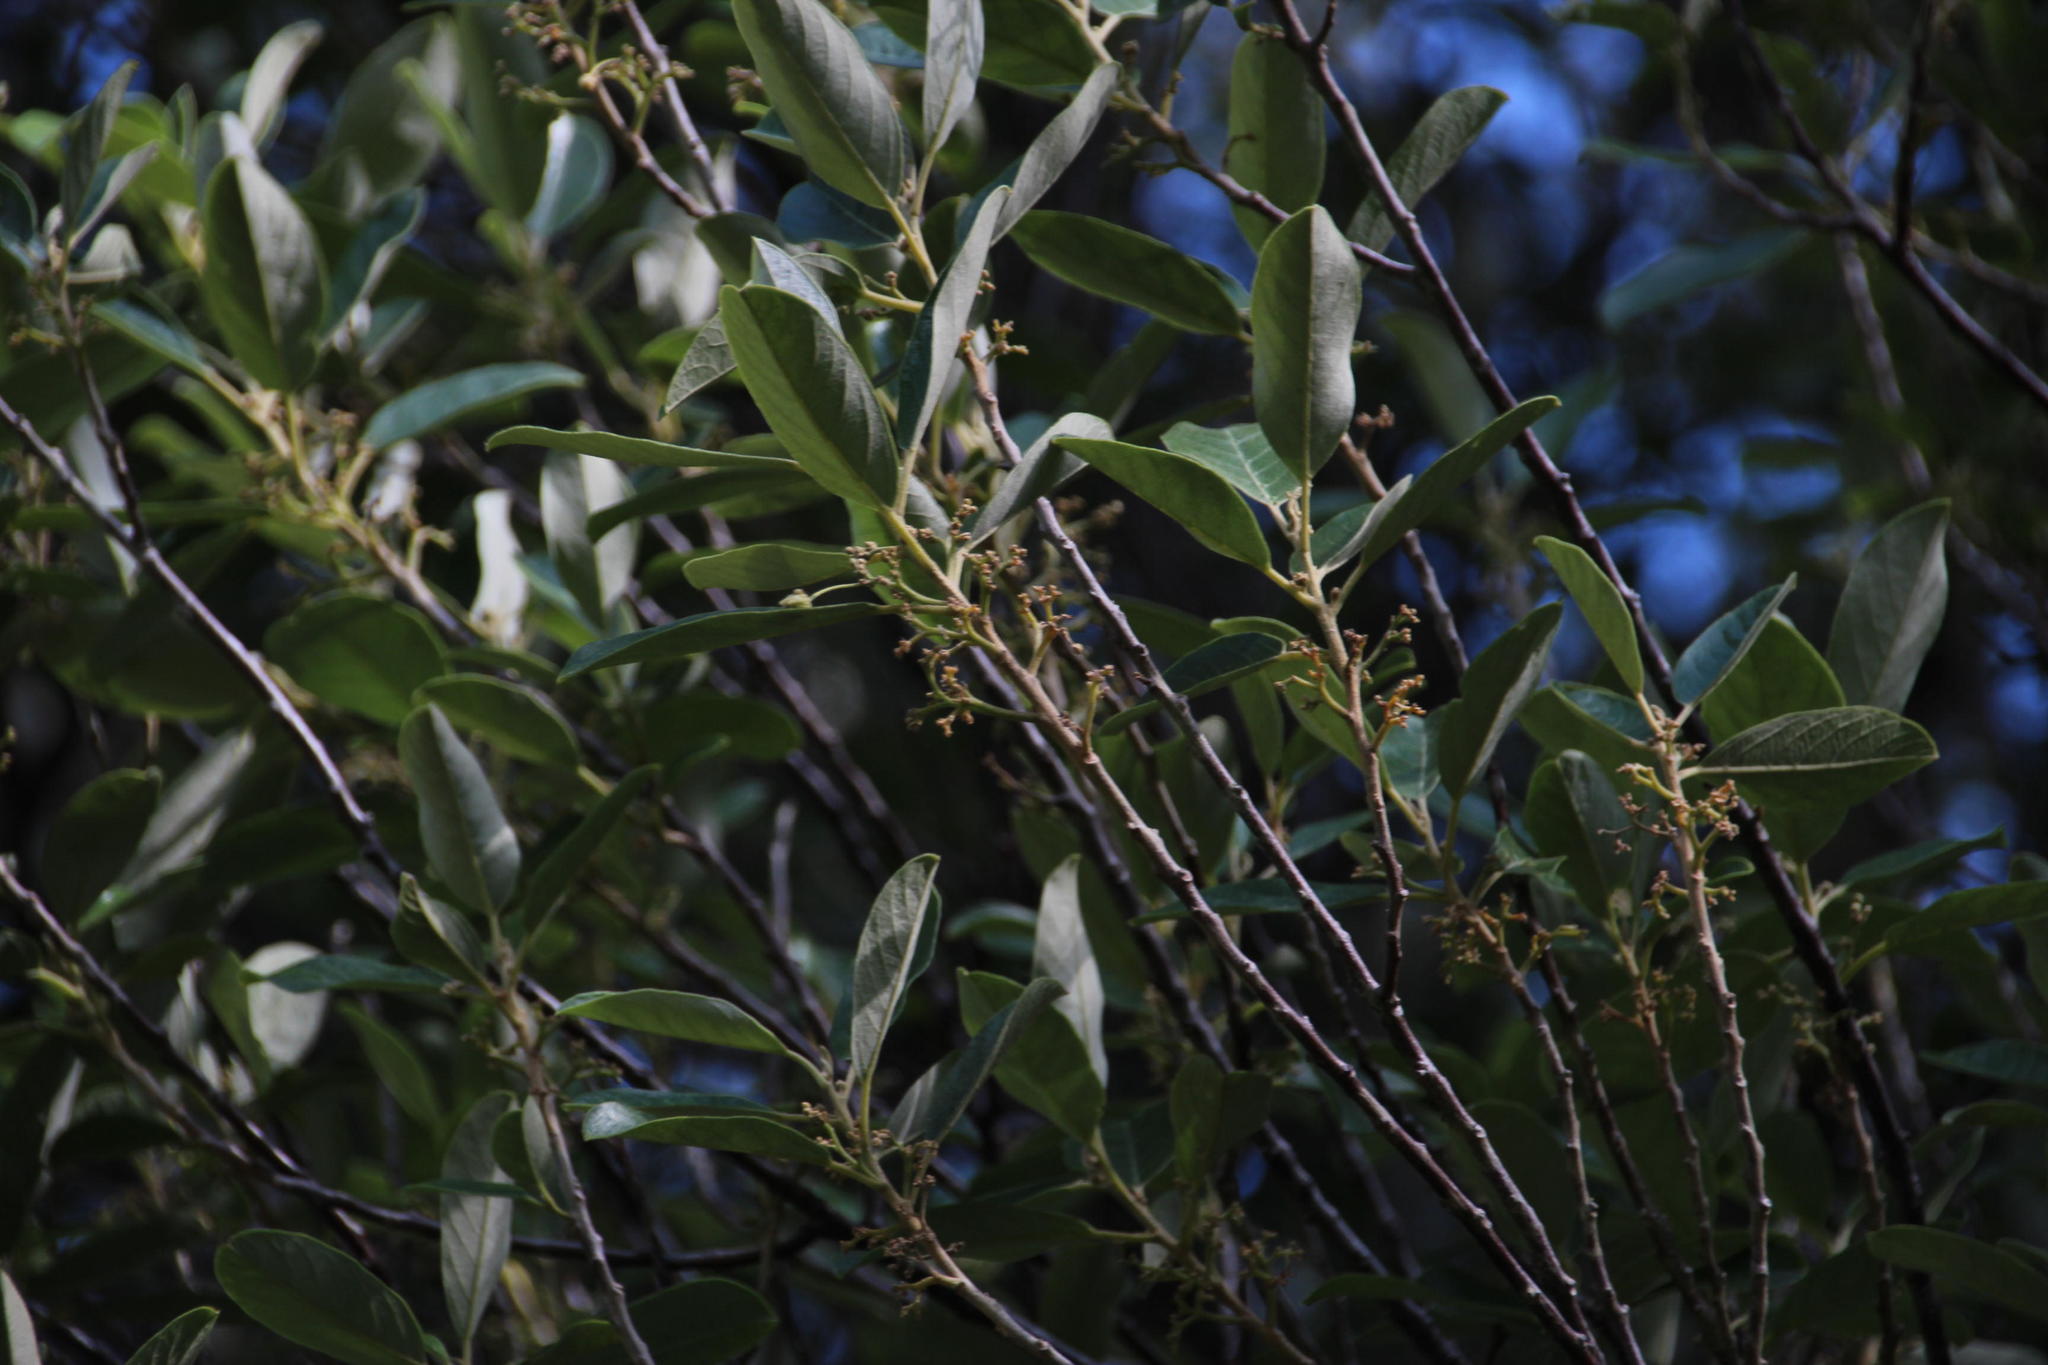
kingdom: Plantae
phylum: Tracheophyta
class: Magnoliopsida
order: Malpighiales
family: Achariaceae
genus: Kiggelaria
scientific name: Kiggelaria africana
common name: Wild peach
